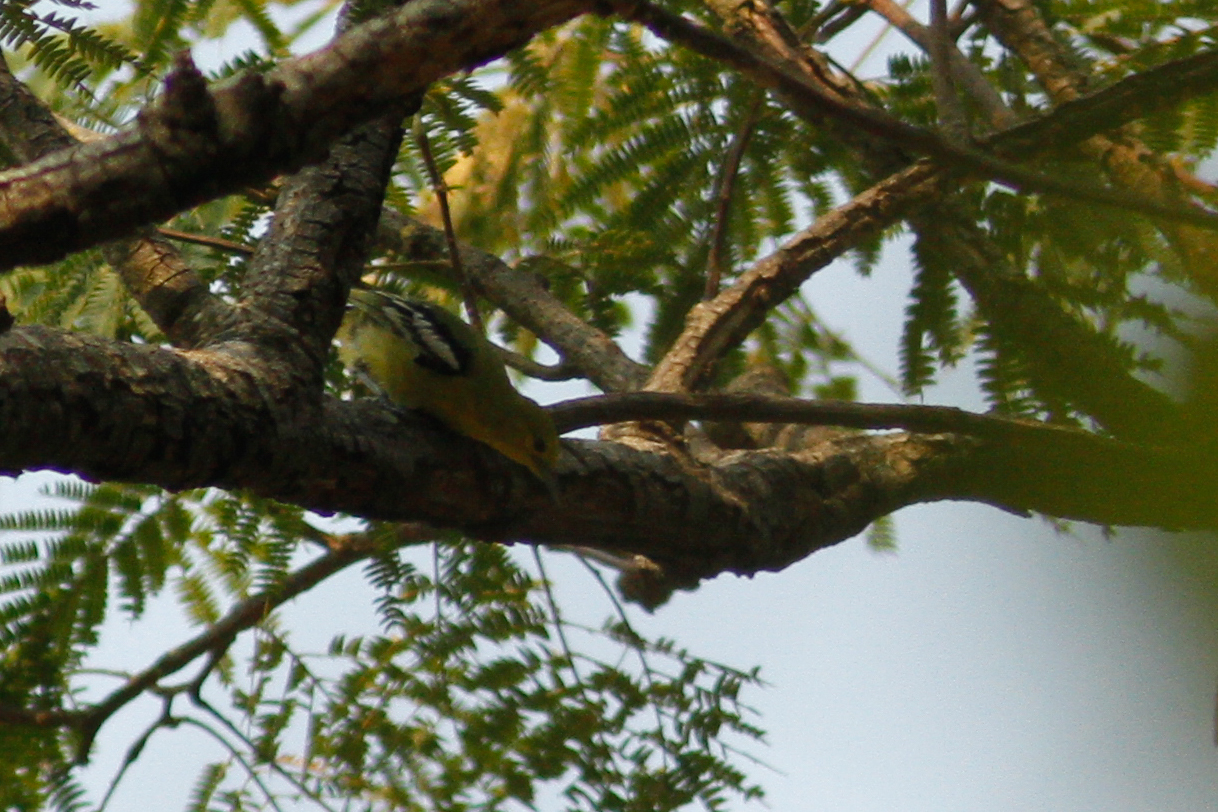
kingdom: Animalia
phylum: Chordata
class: Aves
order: Passeriformes
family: Aegithinidae
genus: Aegithina
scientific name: Aegithina tiphia
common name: Common iora
